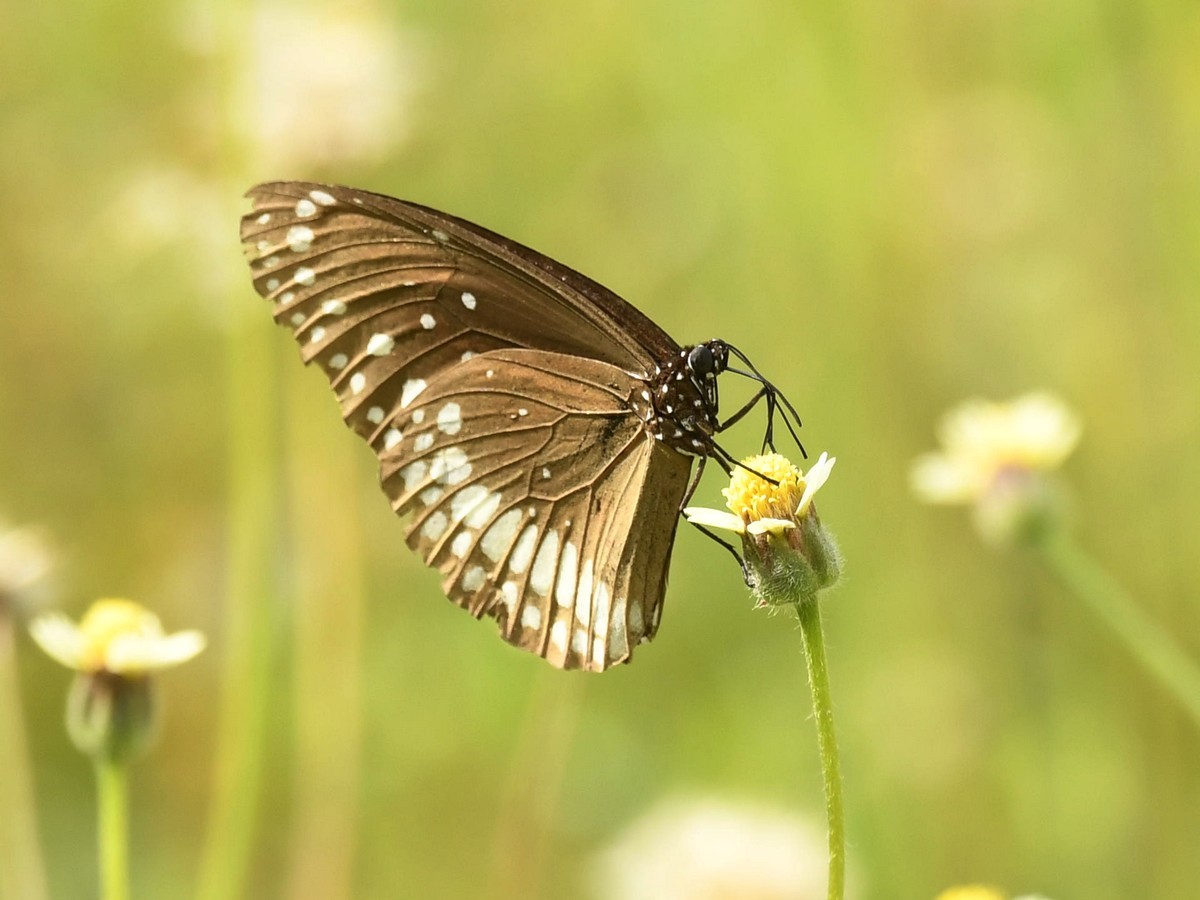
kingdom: Animalia
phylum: Arthropoda
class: Insecta
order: Lepidoptera
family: Nymphalidae
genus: Euploea
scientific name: Euploea core
